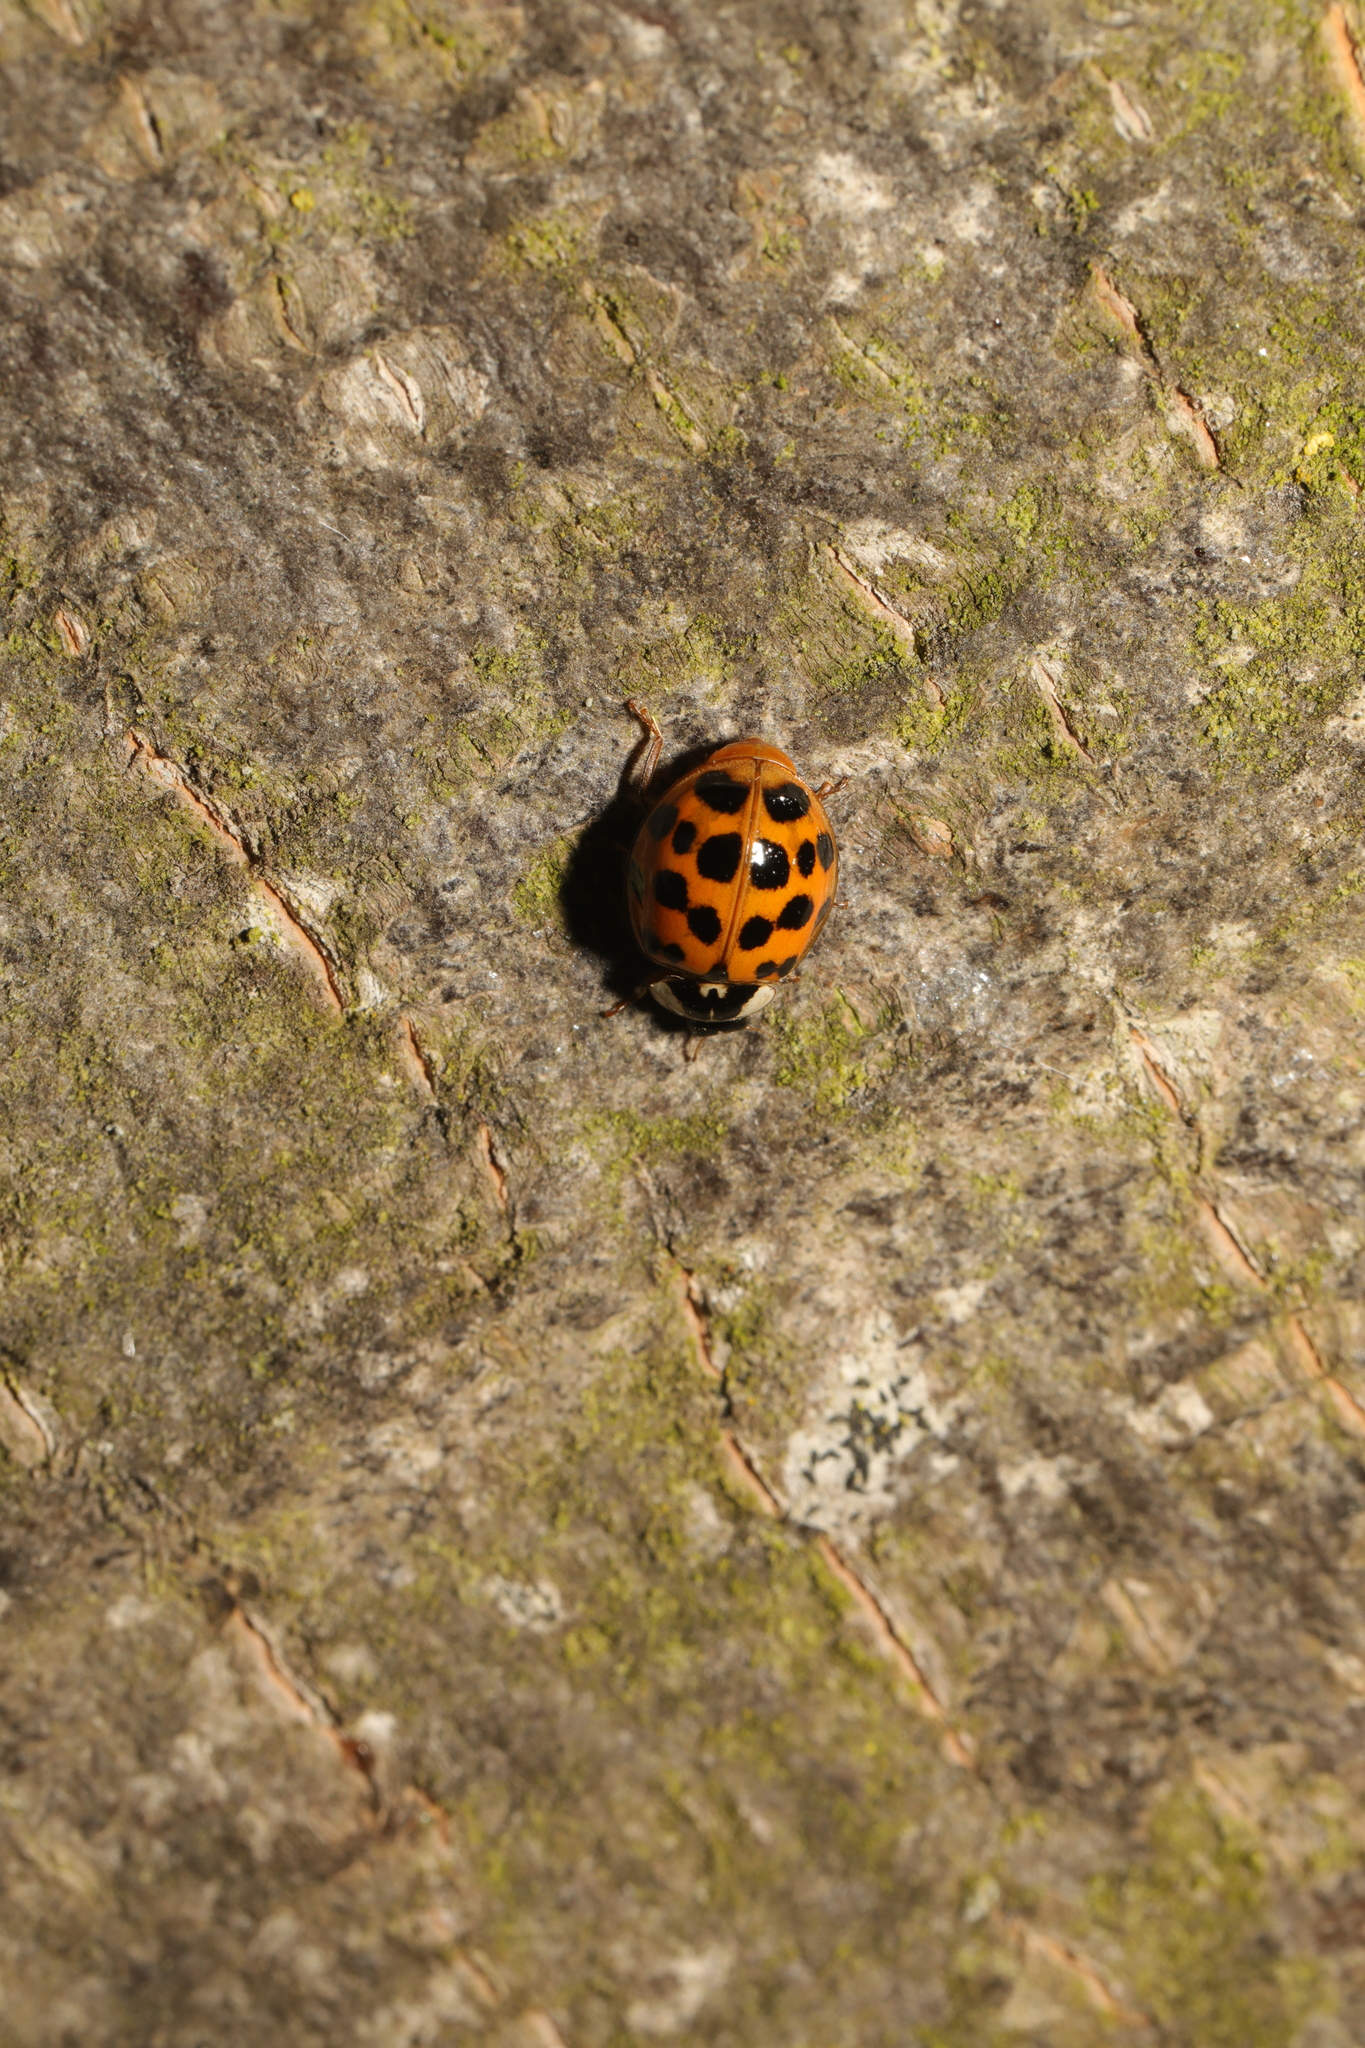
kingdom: Animalia
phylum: Arthropoda
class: Insecta
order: Coleoptera
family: Coccinellidae
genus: Harmonia
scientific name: Harmonia axyridis
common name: Harlequin ladybird
